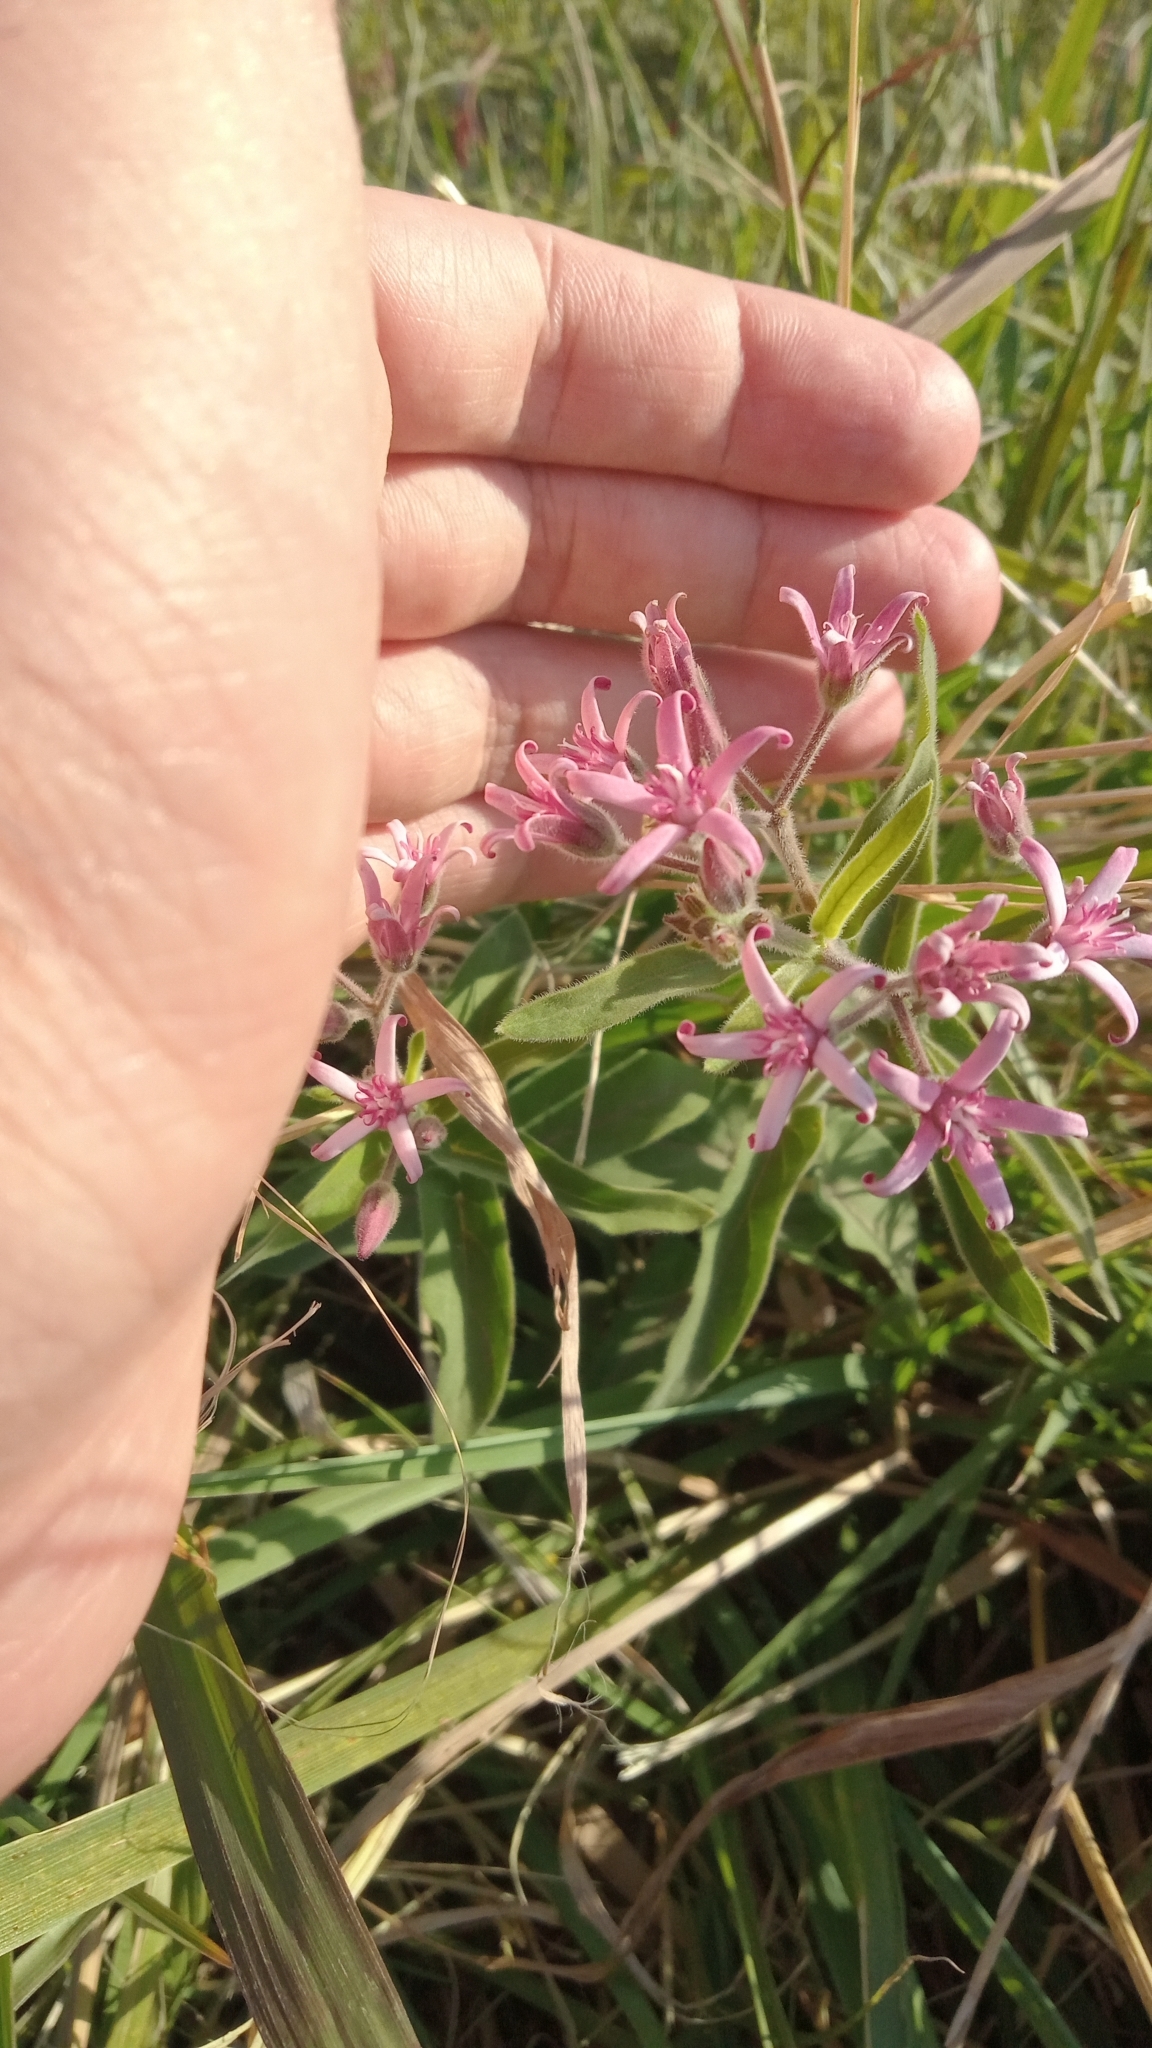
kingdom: Plantae
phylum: Tracheophyta
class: Magnoliopsida
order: Gentianales
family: Apocynaceae
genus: Oxypetalum
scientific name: Oxypetalum solanoides
